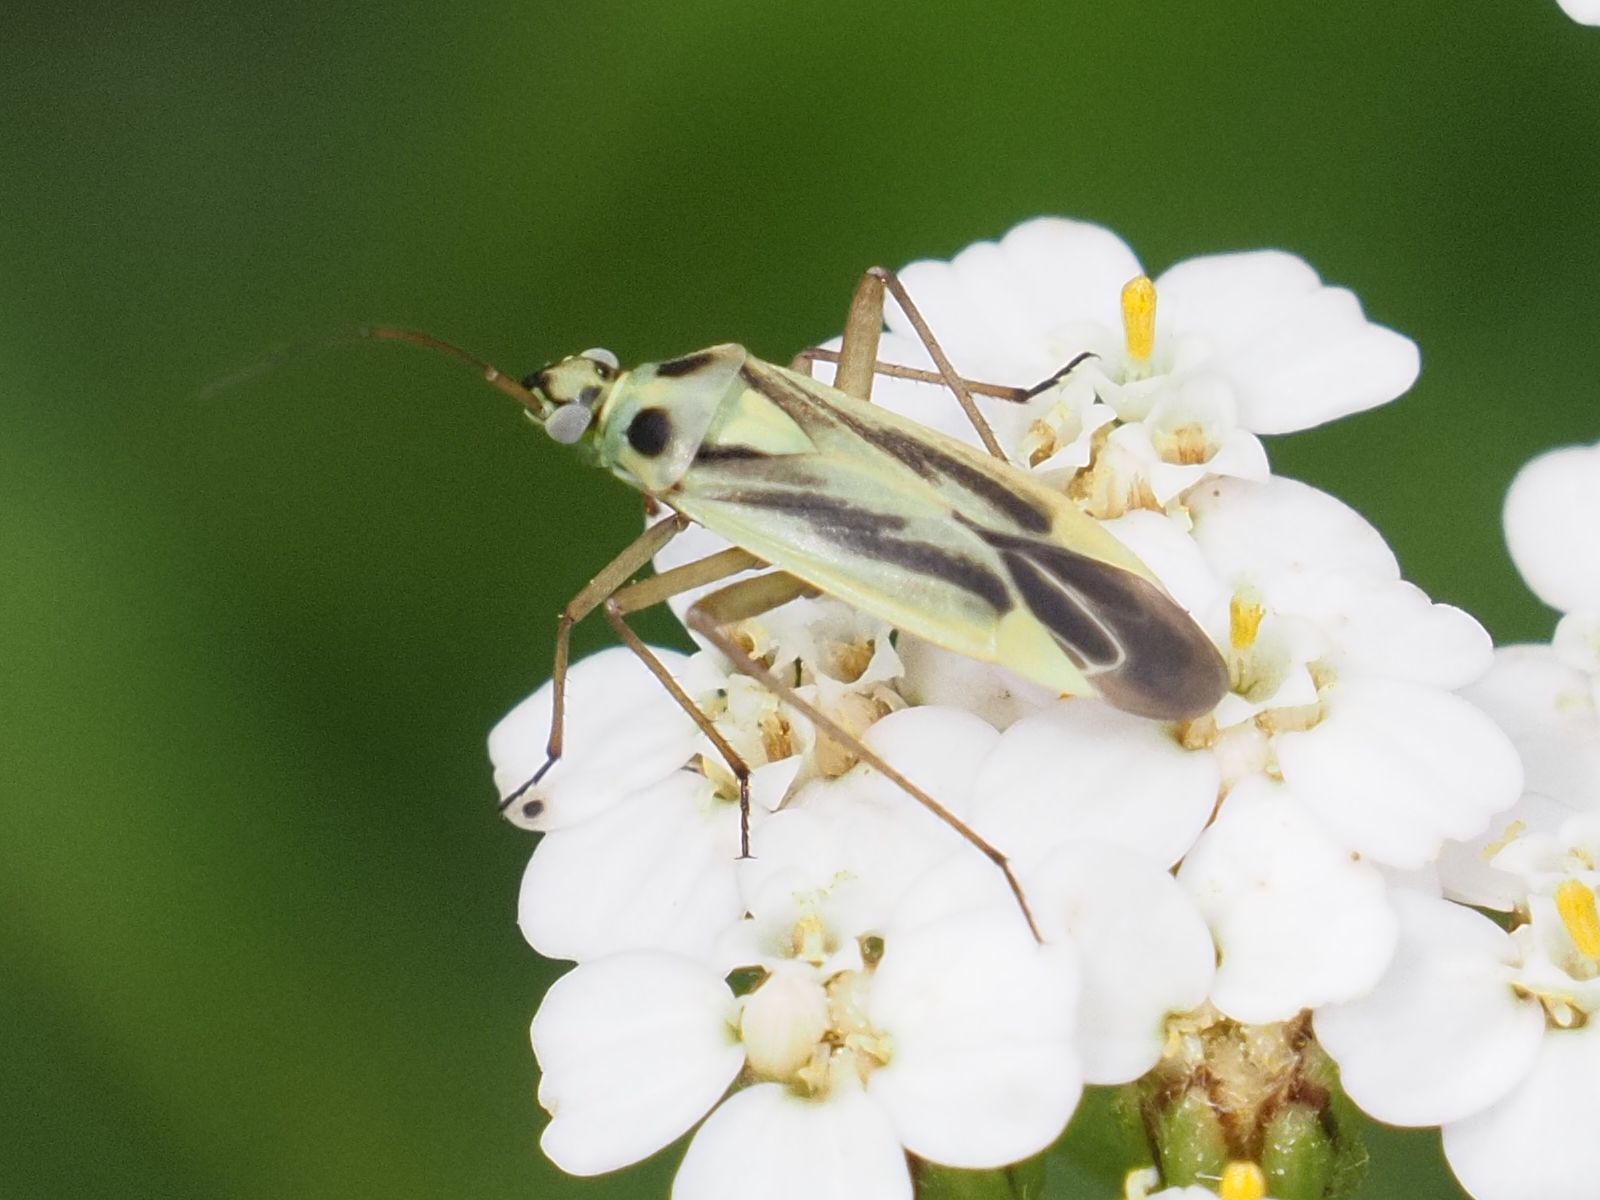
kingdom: Animalia
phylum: Arthropoda
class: Insecta
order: Hemiptera
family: Miridae
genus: Stenotus
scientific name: Stenotus binotatus
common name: Plant bug
